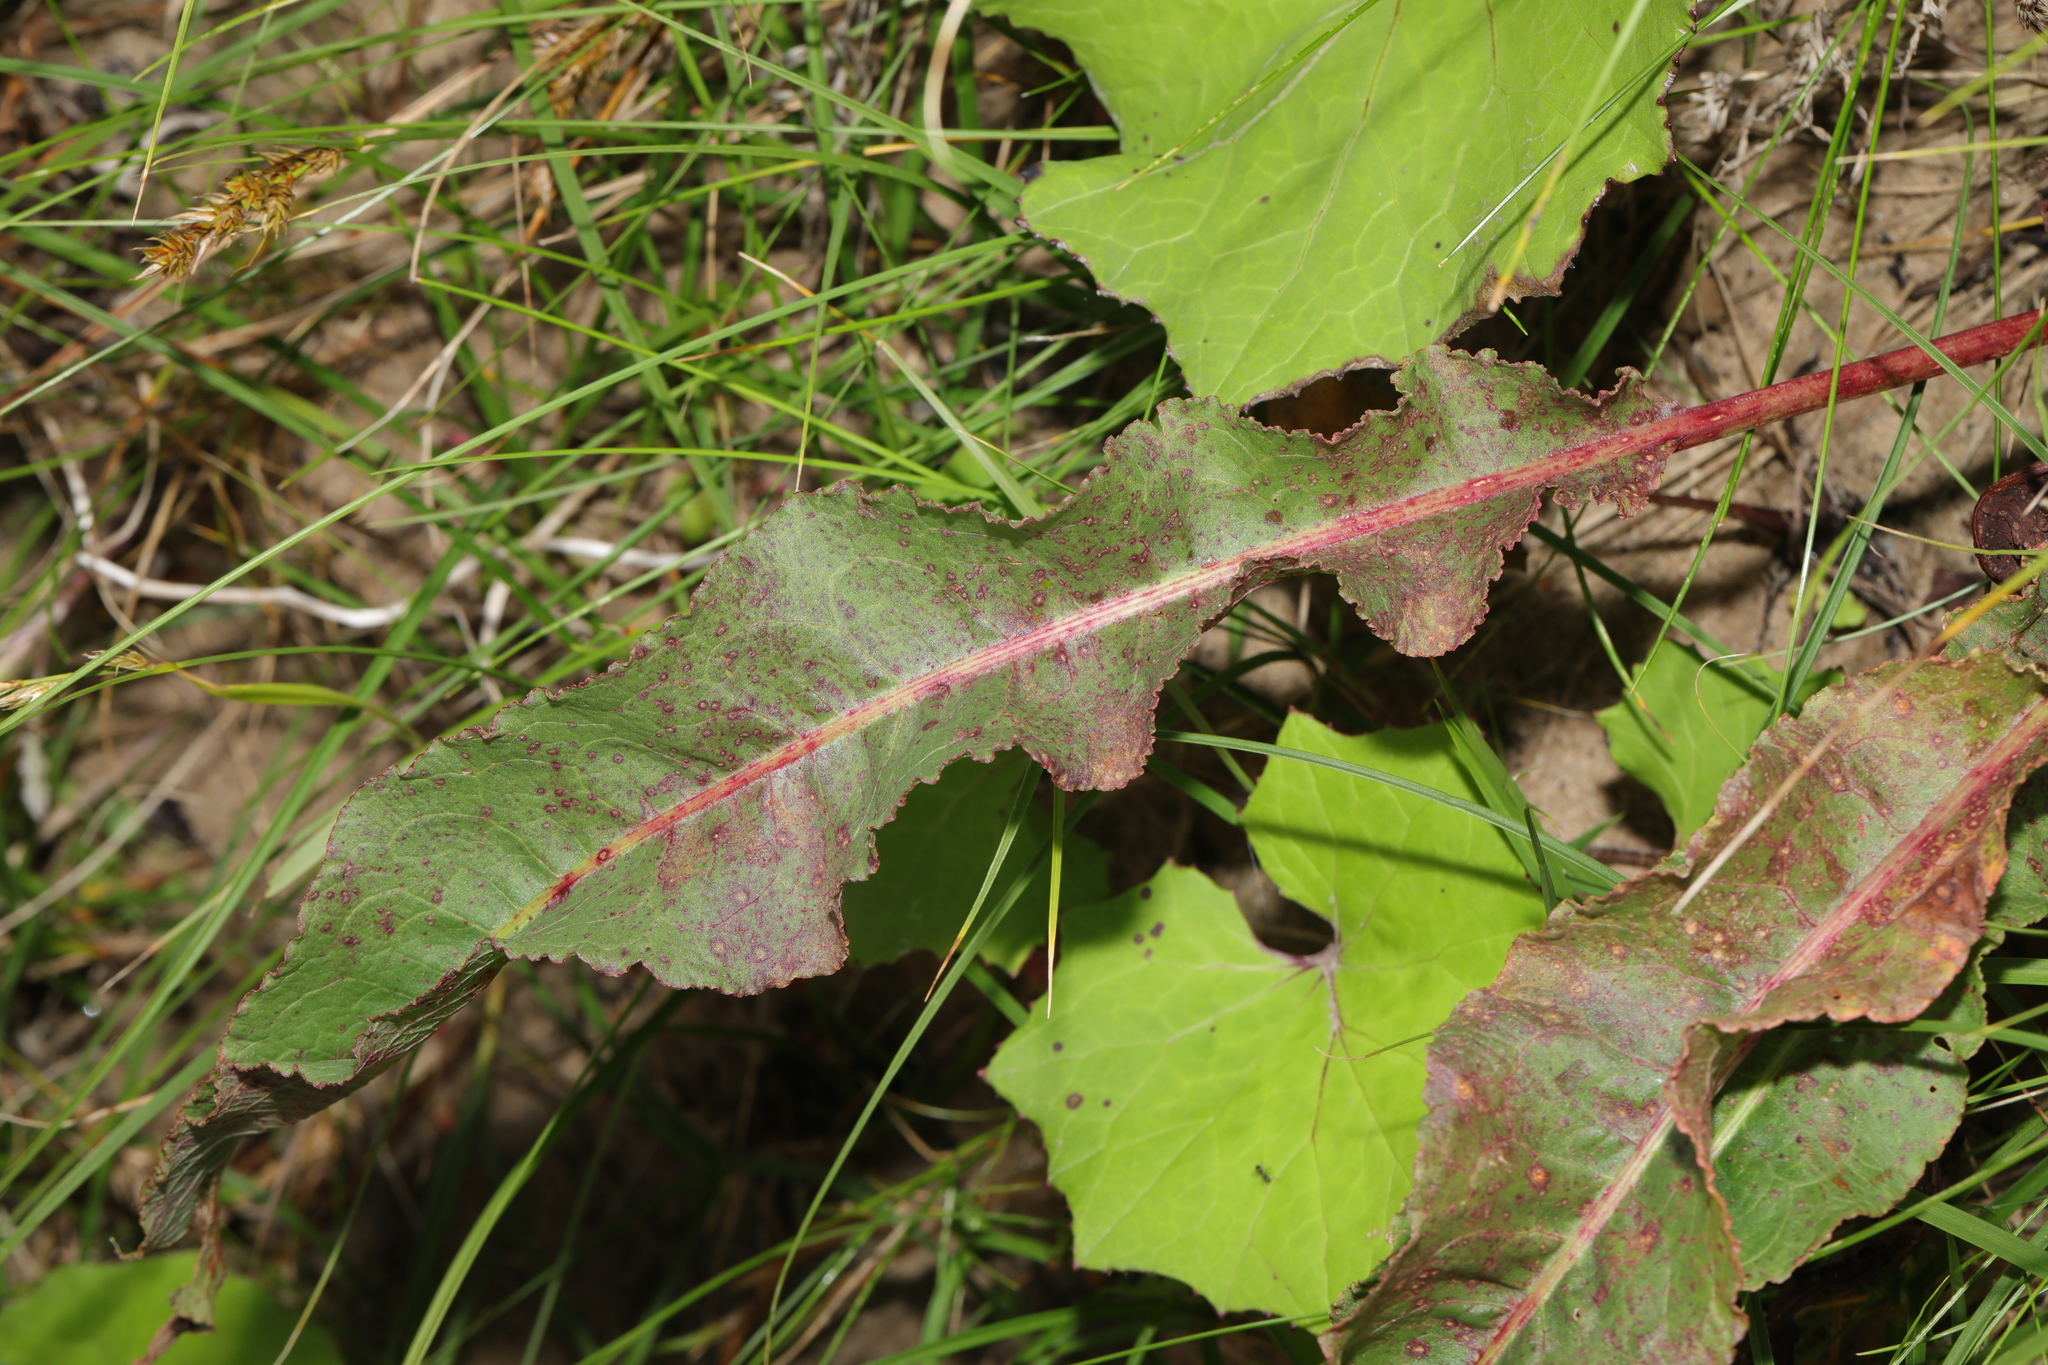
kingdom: Plantae
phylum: Tracheophyta
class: Magnoliopsida
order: Caryophyllales
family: Polygonaceae
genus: Rumex
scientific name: Rumex crispus
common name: Curled dock
